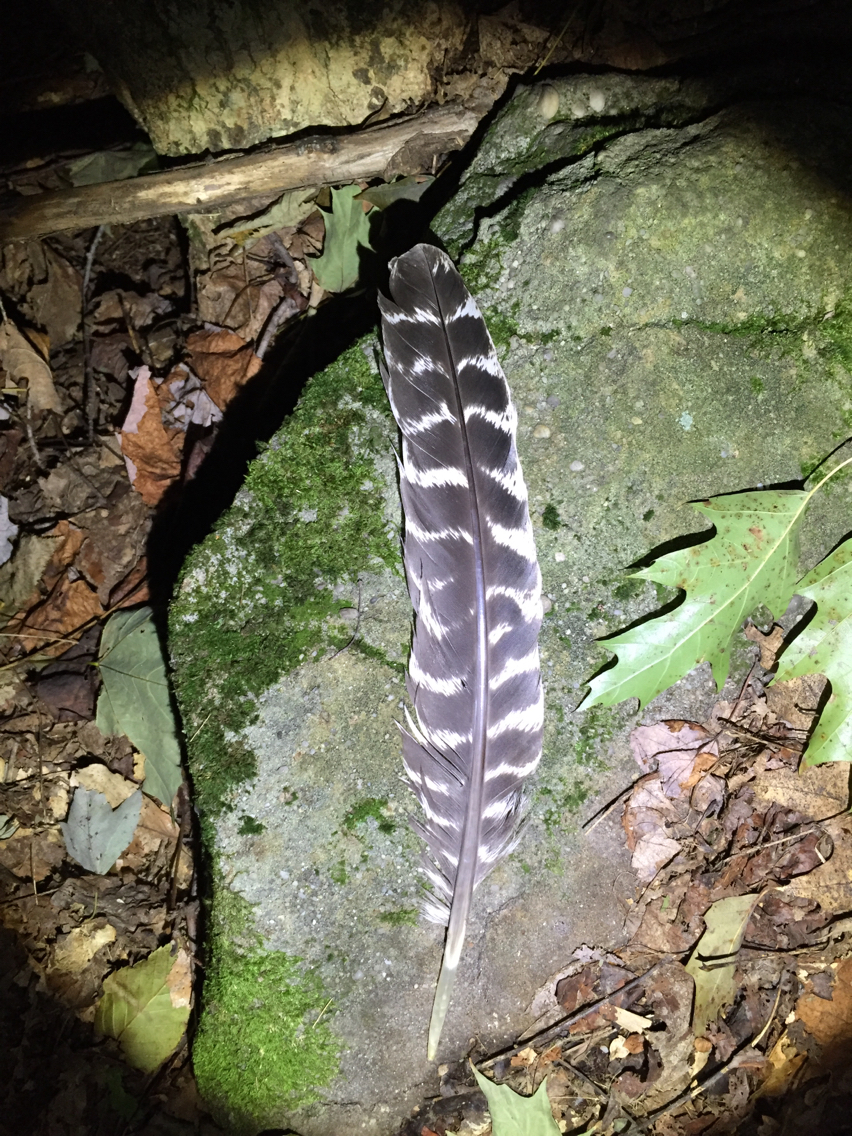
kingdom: Animalia
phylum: Chordata
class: Aves
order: Galliformes
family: Phasianidae
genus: Meleagris
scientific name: Meleagris gallopavo
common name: Wild turkey
